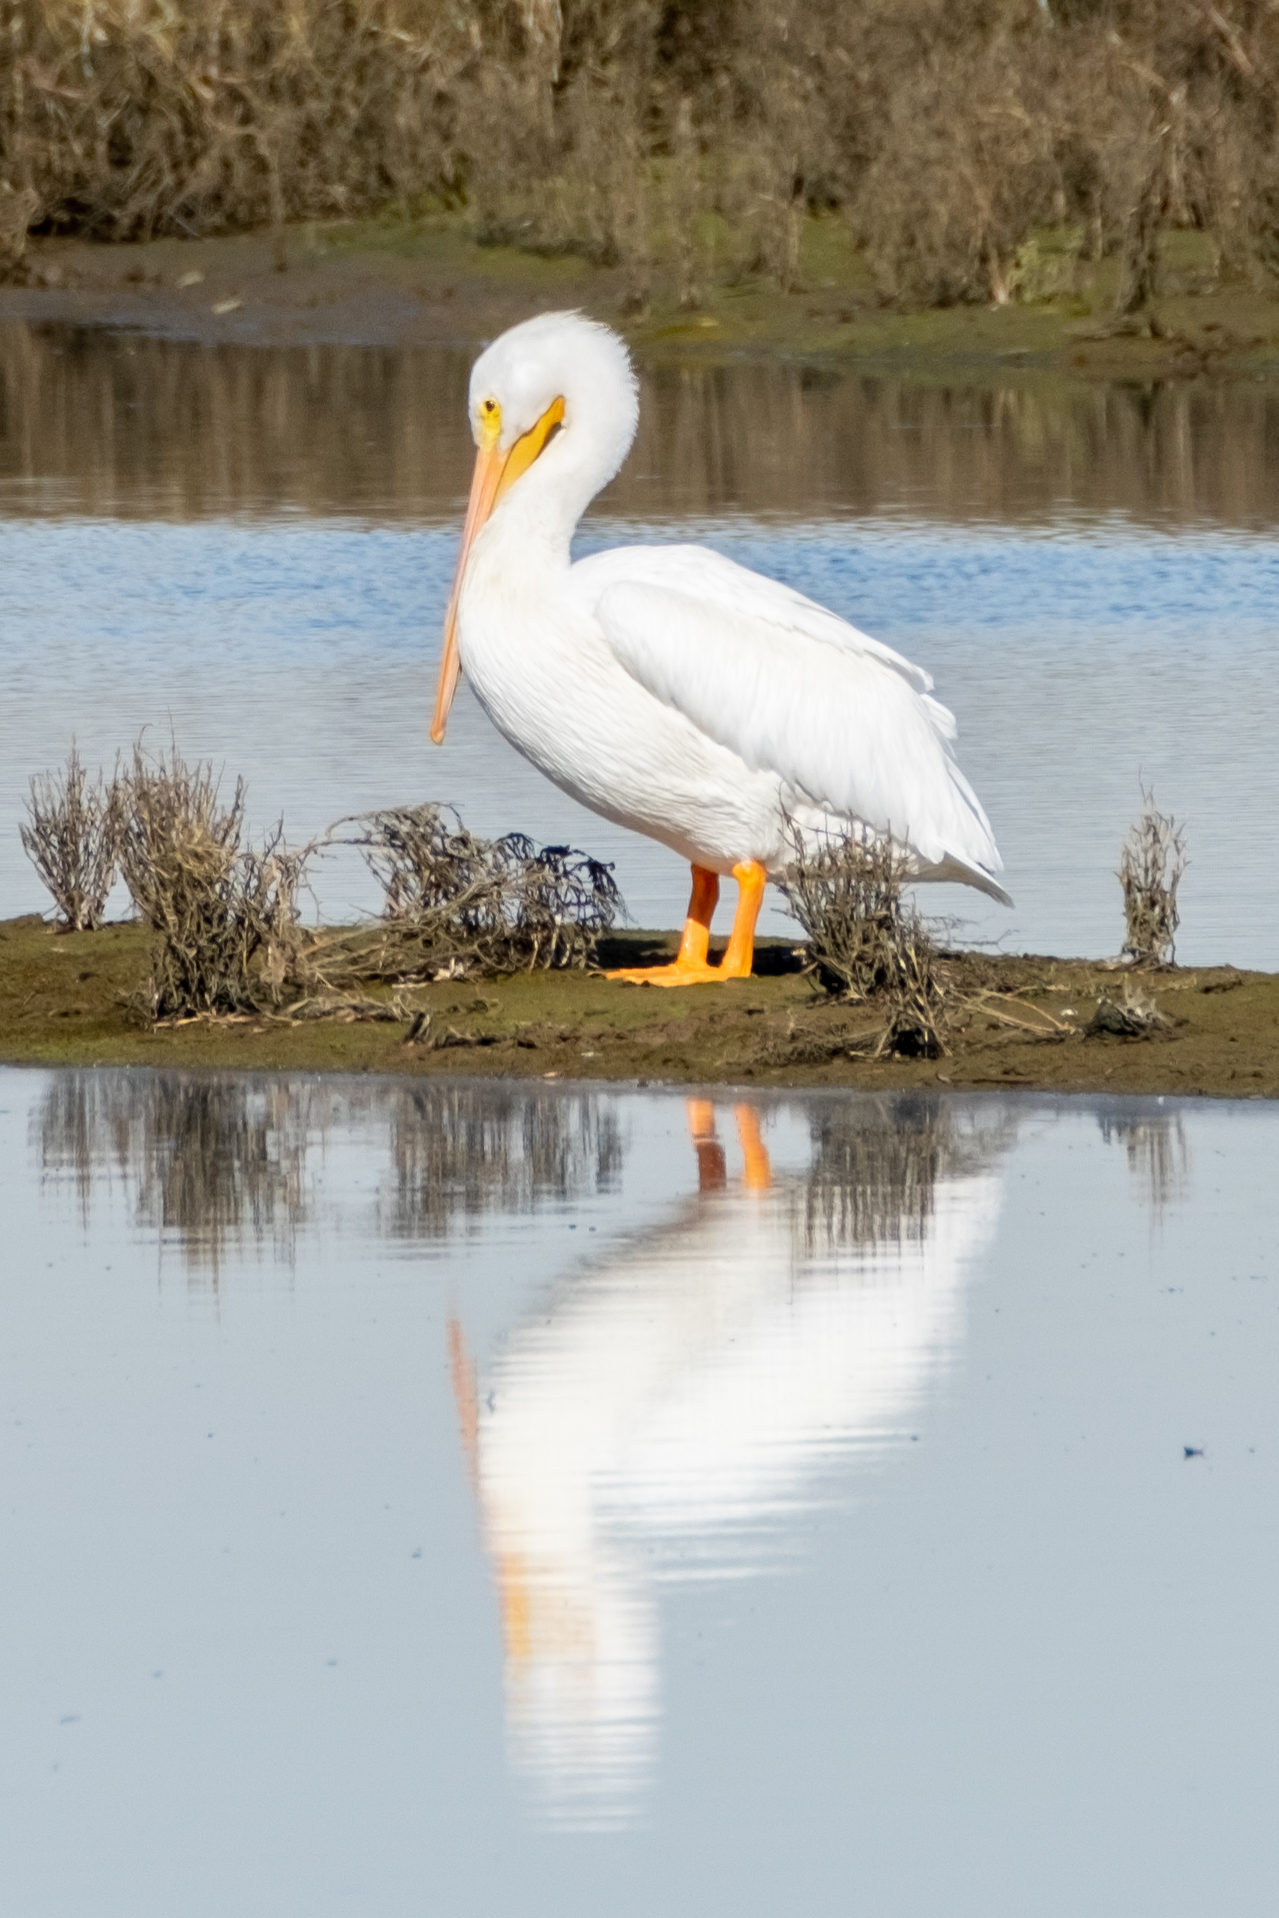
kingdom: Animalia
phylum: Chordata
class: Aves
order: Pelecaniformes
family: Pelecanidae
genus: Pelecanus
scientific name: Pelecanus erythrorhynchos
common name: American white pelican
